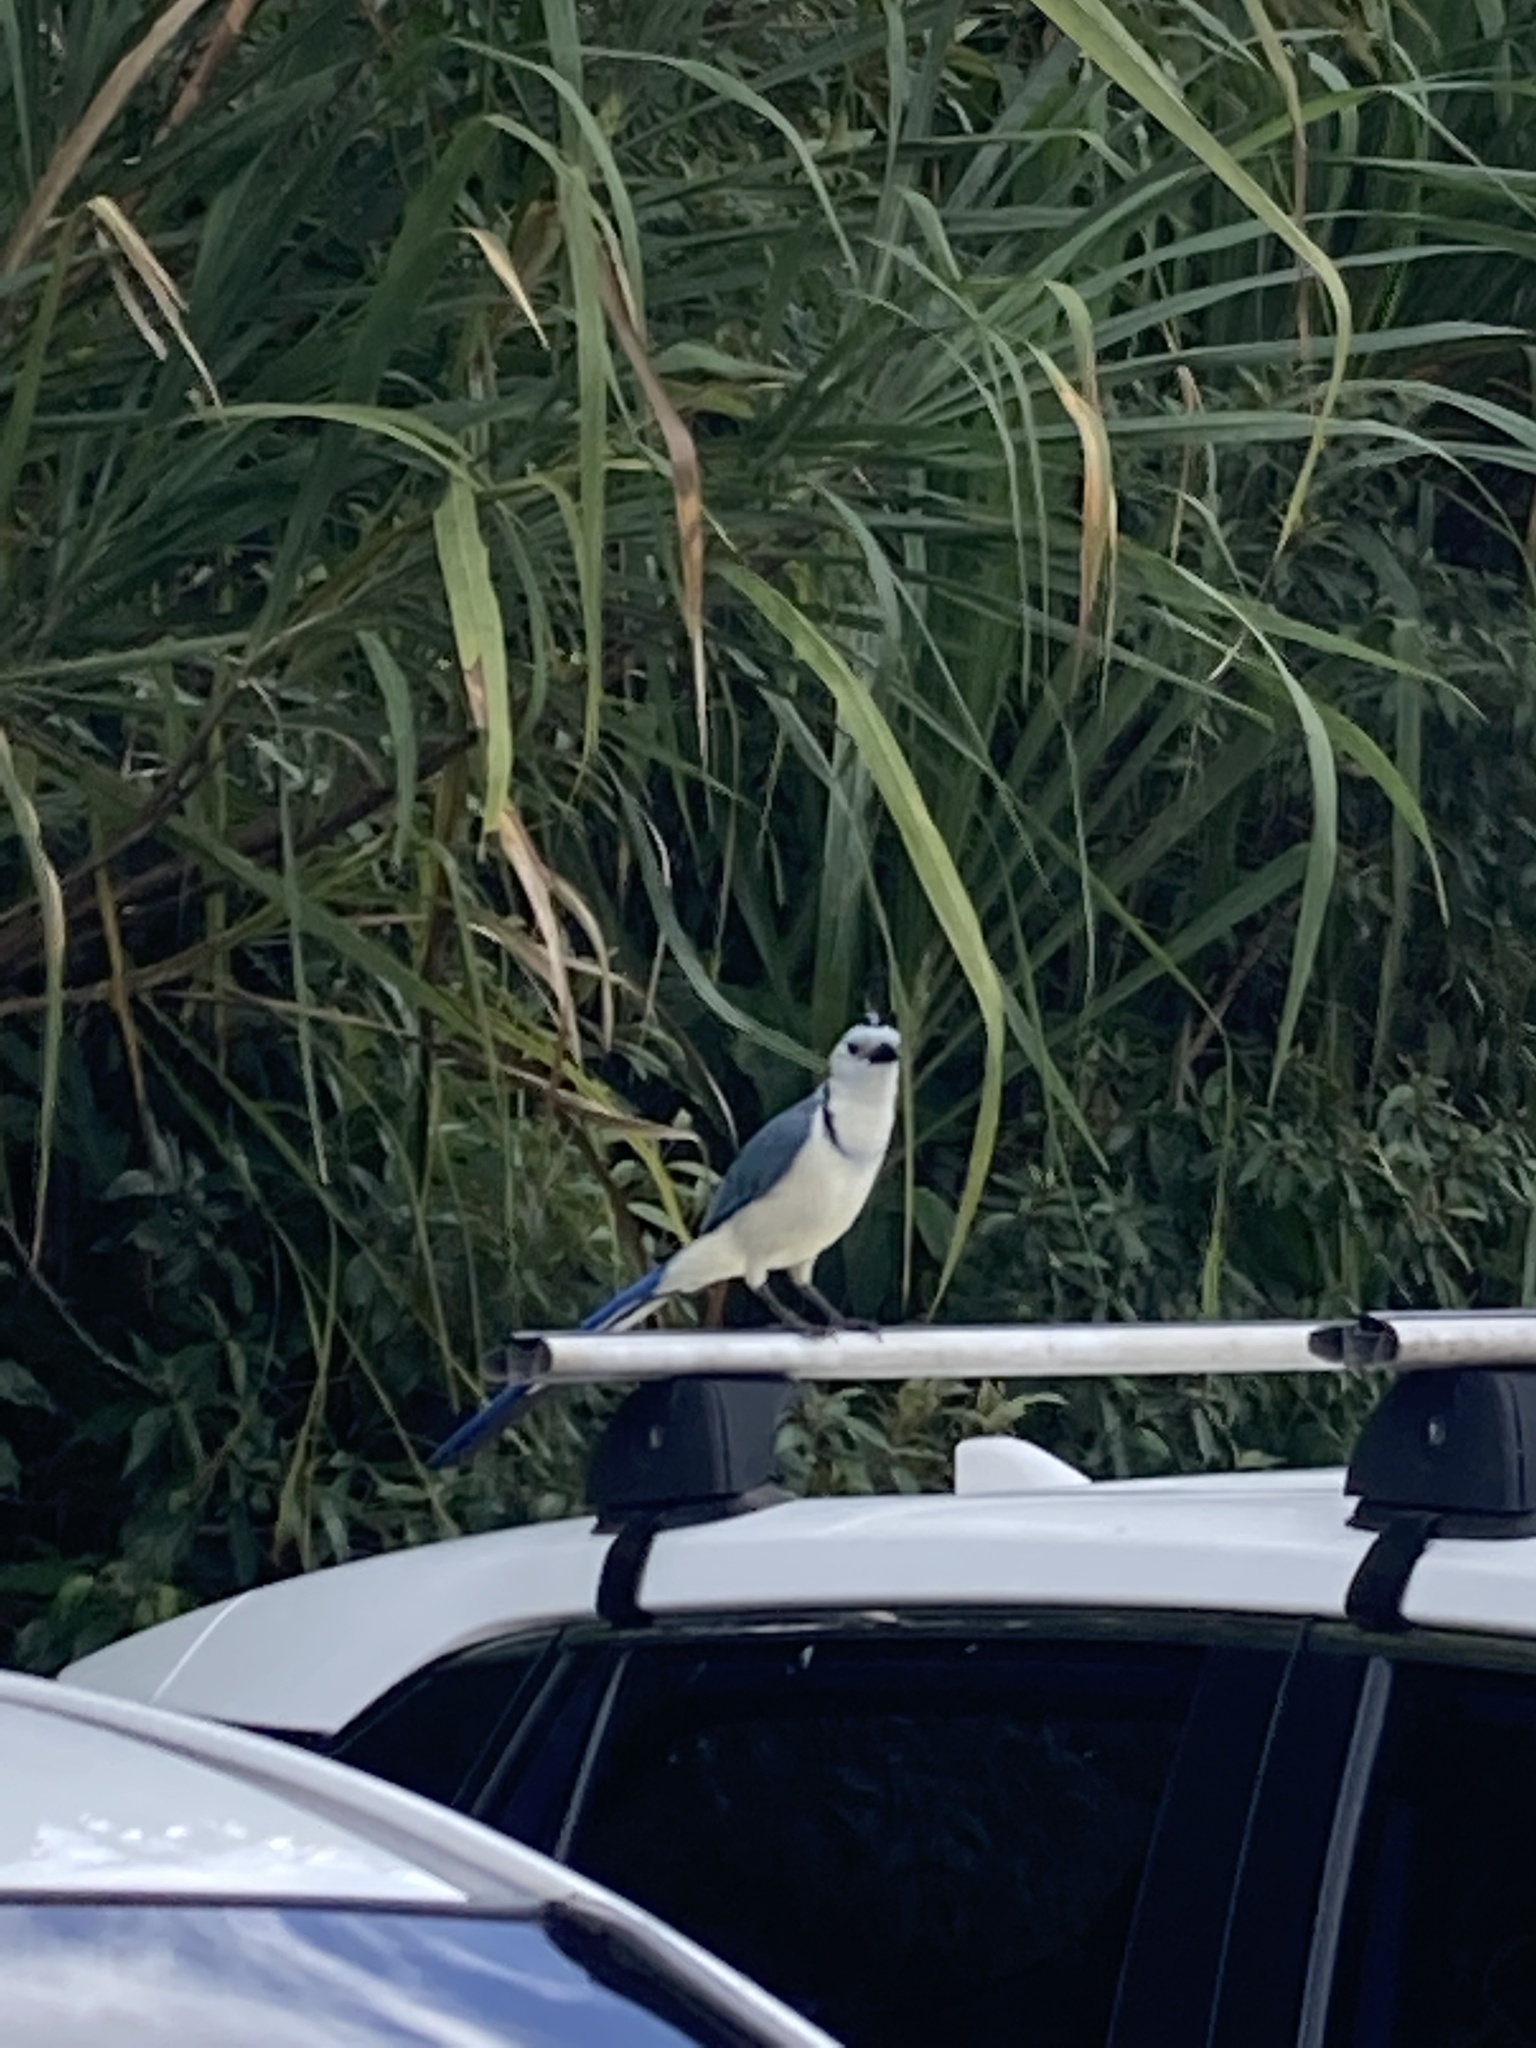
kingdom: Animalia
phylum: Chordata
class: Aves
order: Passeriformes
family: Corvidae
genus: Calocitta
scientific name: Calocitta formosa
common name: White-throated magpie-jay
